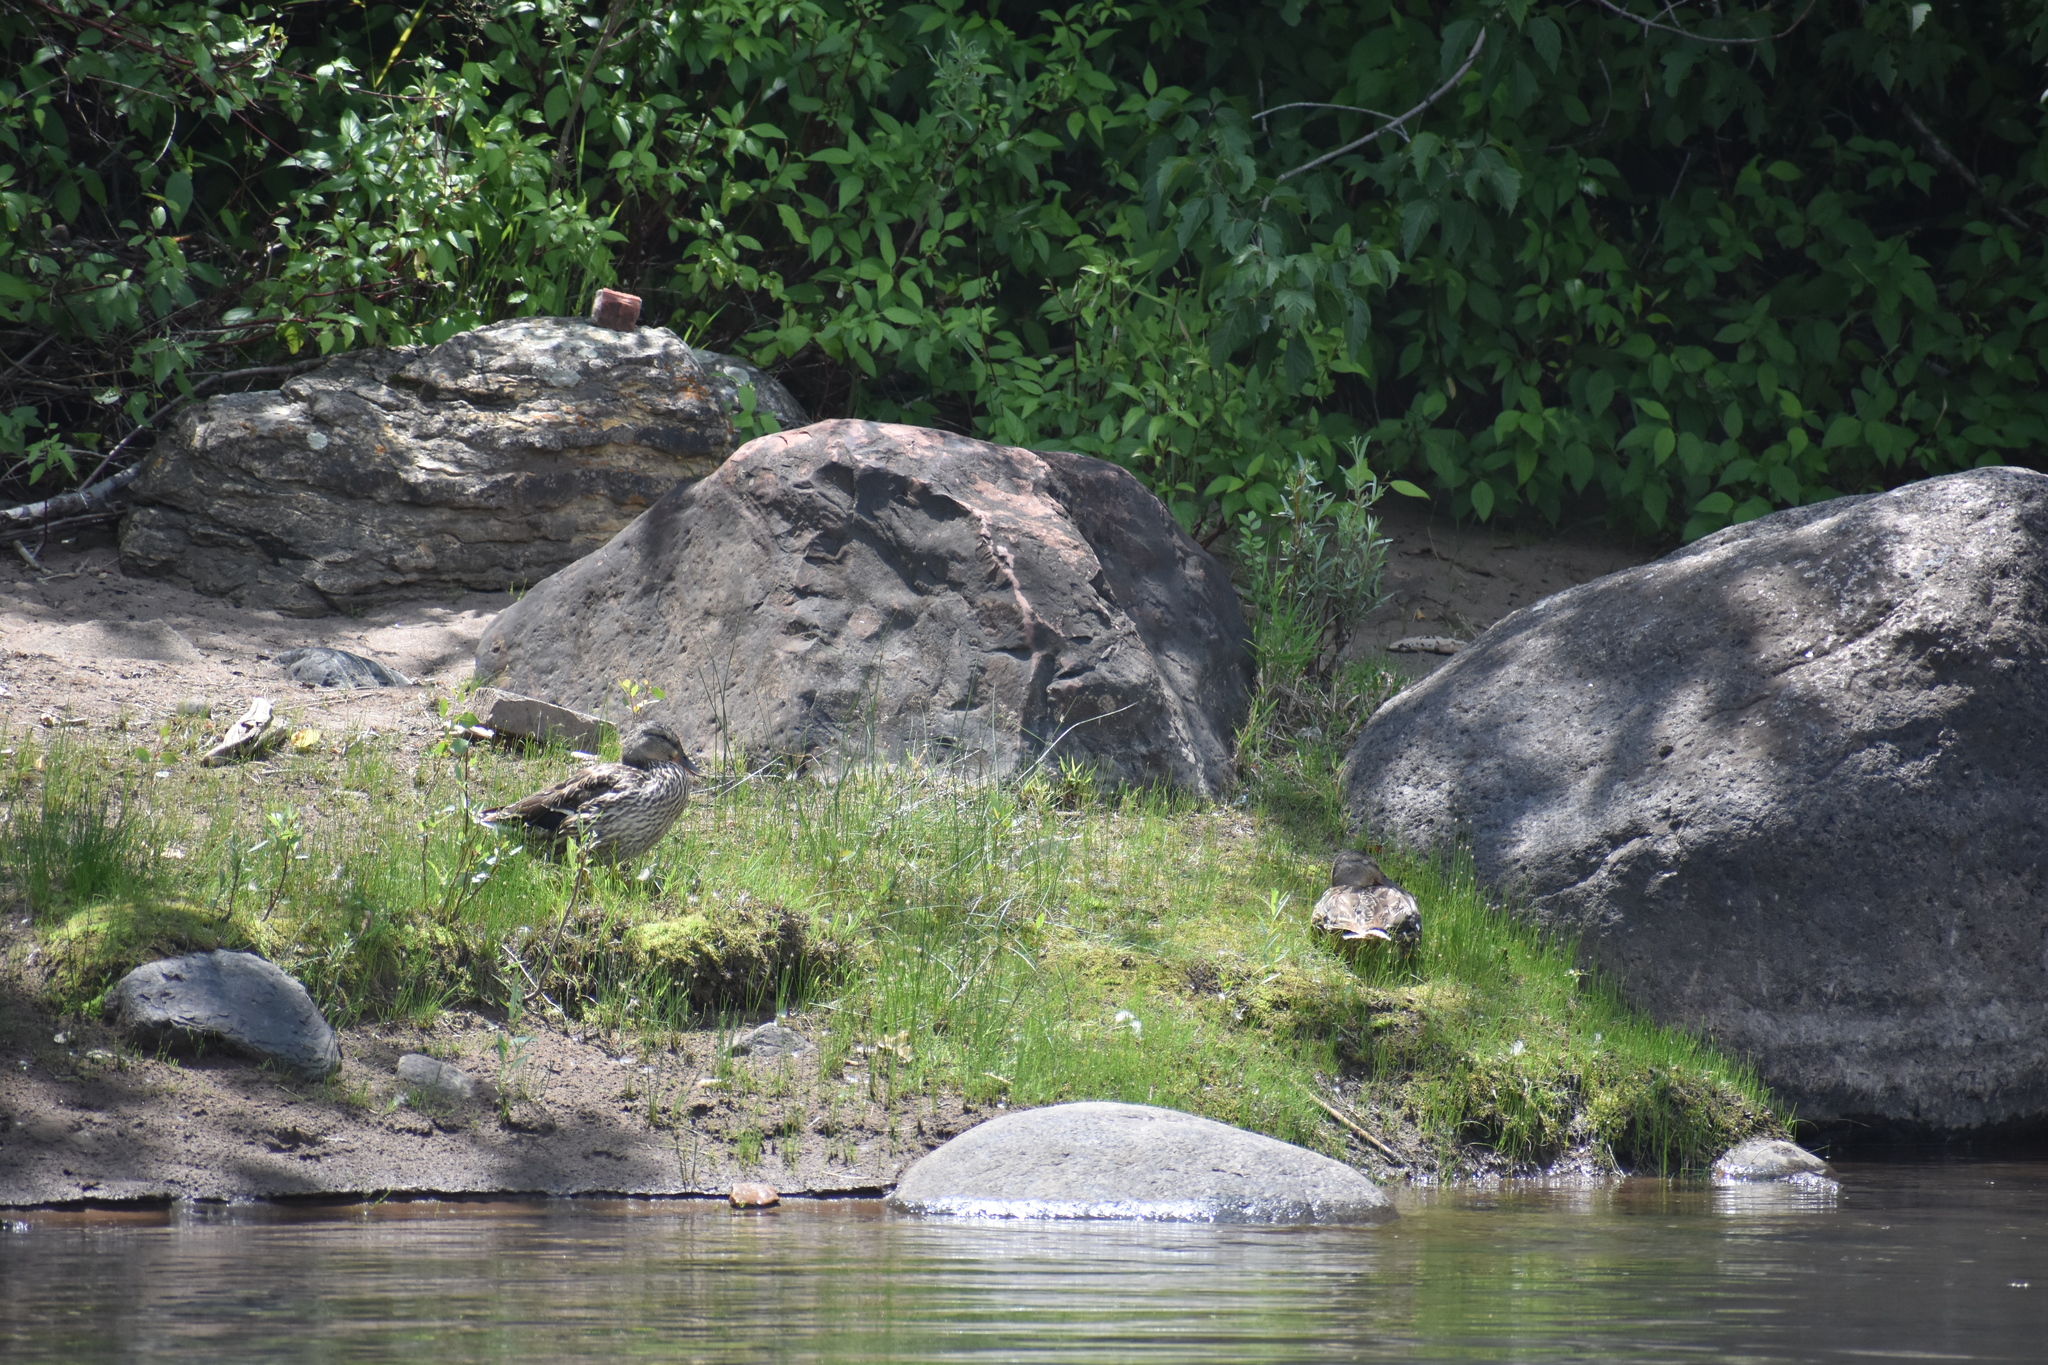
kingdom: Animalia
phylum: Chordata
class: Aves
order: Anseriformes
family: Anatidae
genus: Anas
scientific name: Anas platyrhynchos
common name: Mallard
